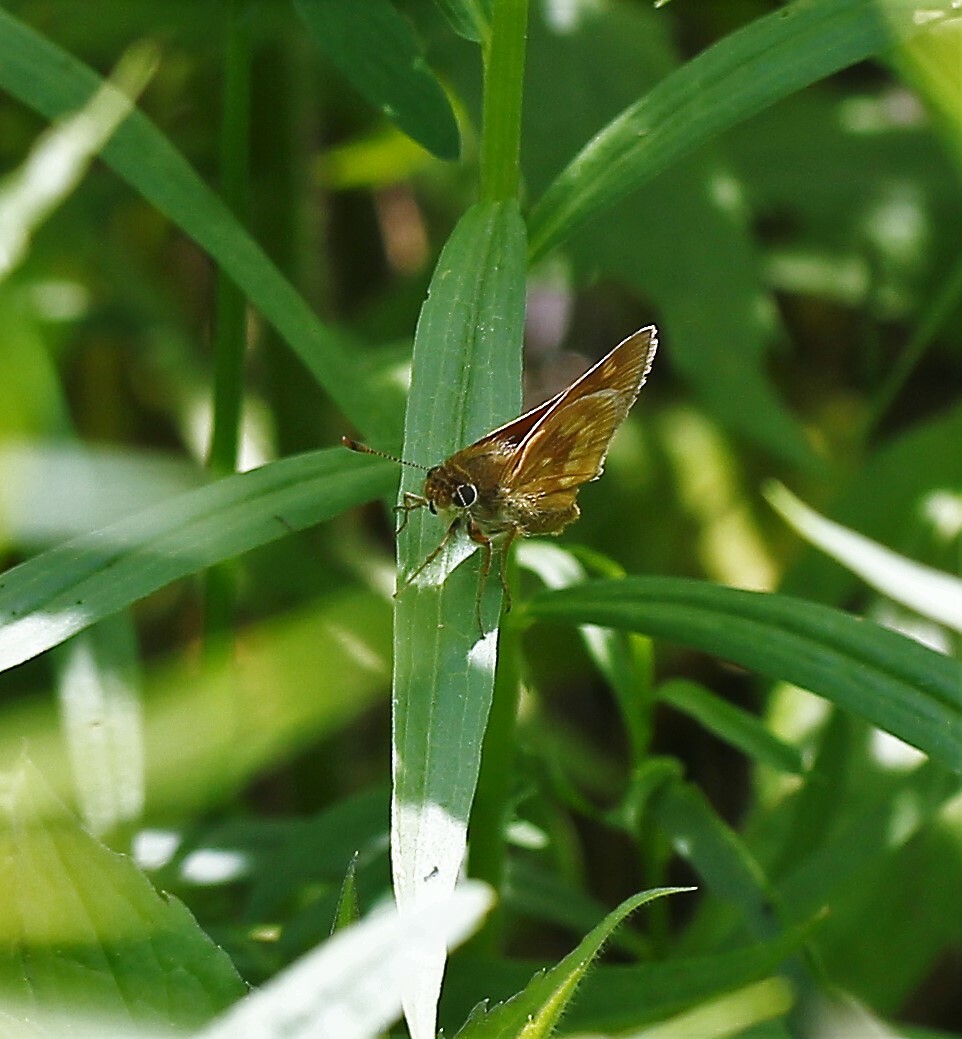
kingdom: Animalia
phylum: Arthropoda
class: Insecta
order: Lepidoptera
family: Hesperiidae
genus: Polites
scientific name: Polites mystic
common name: Long dash
